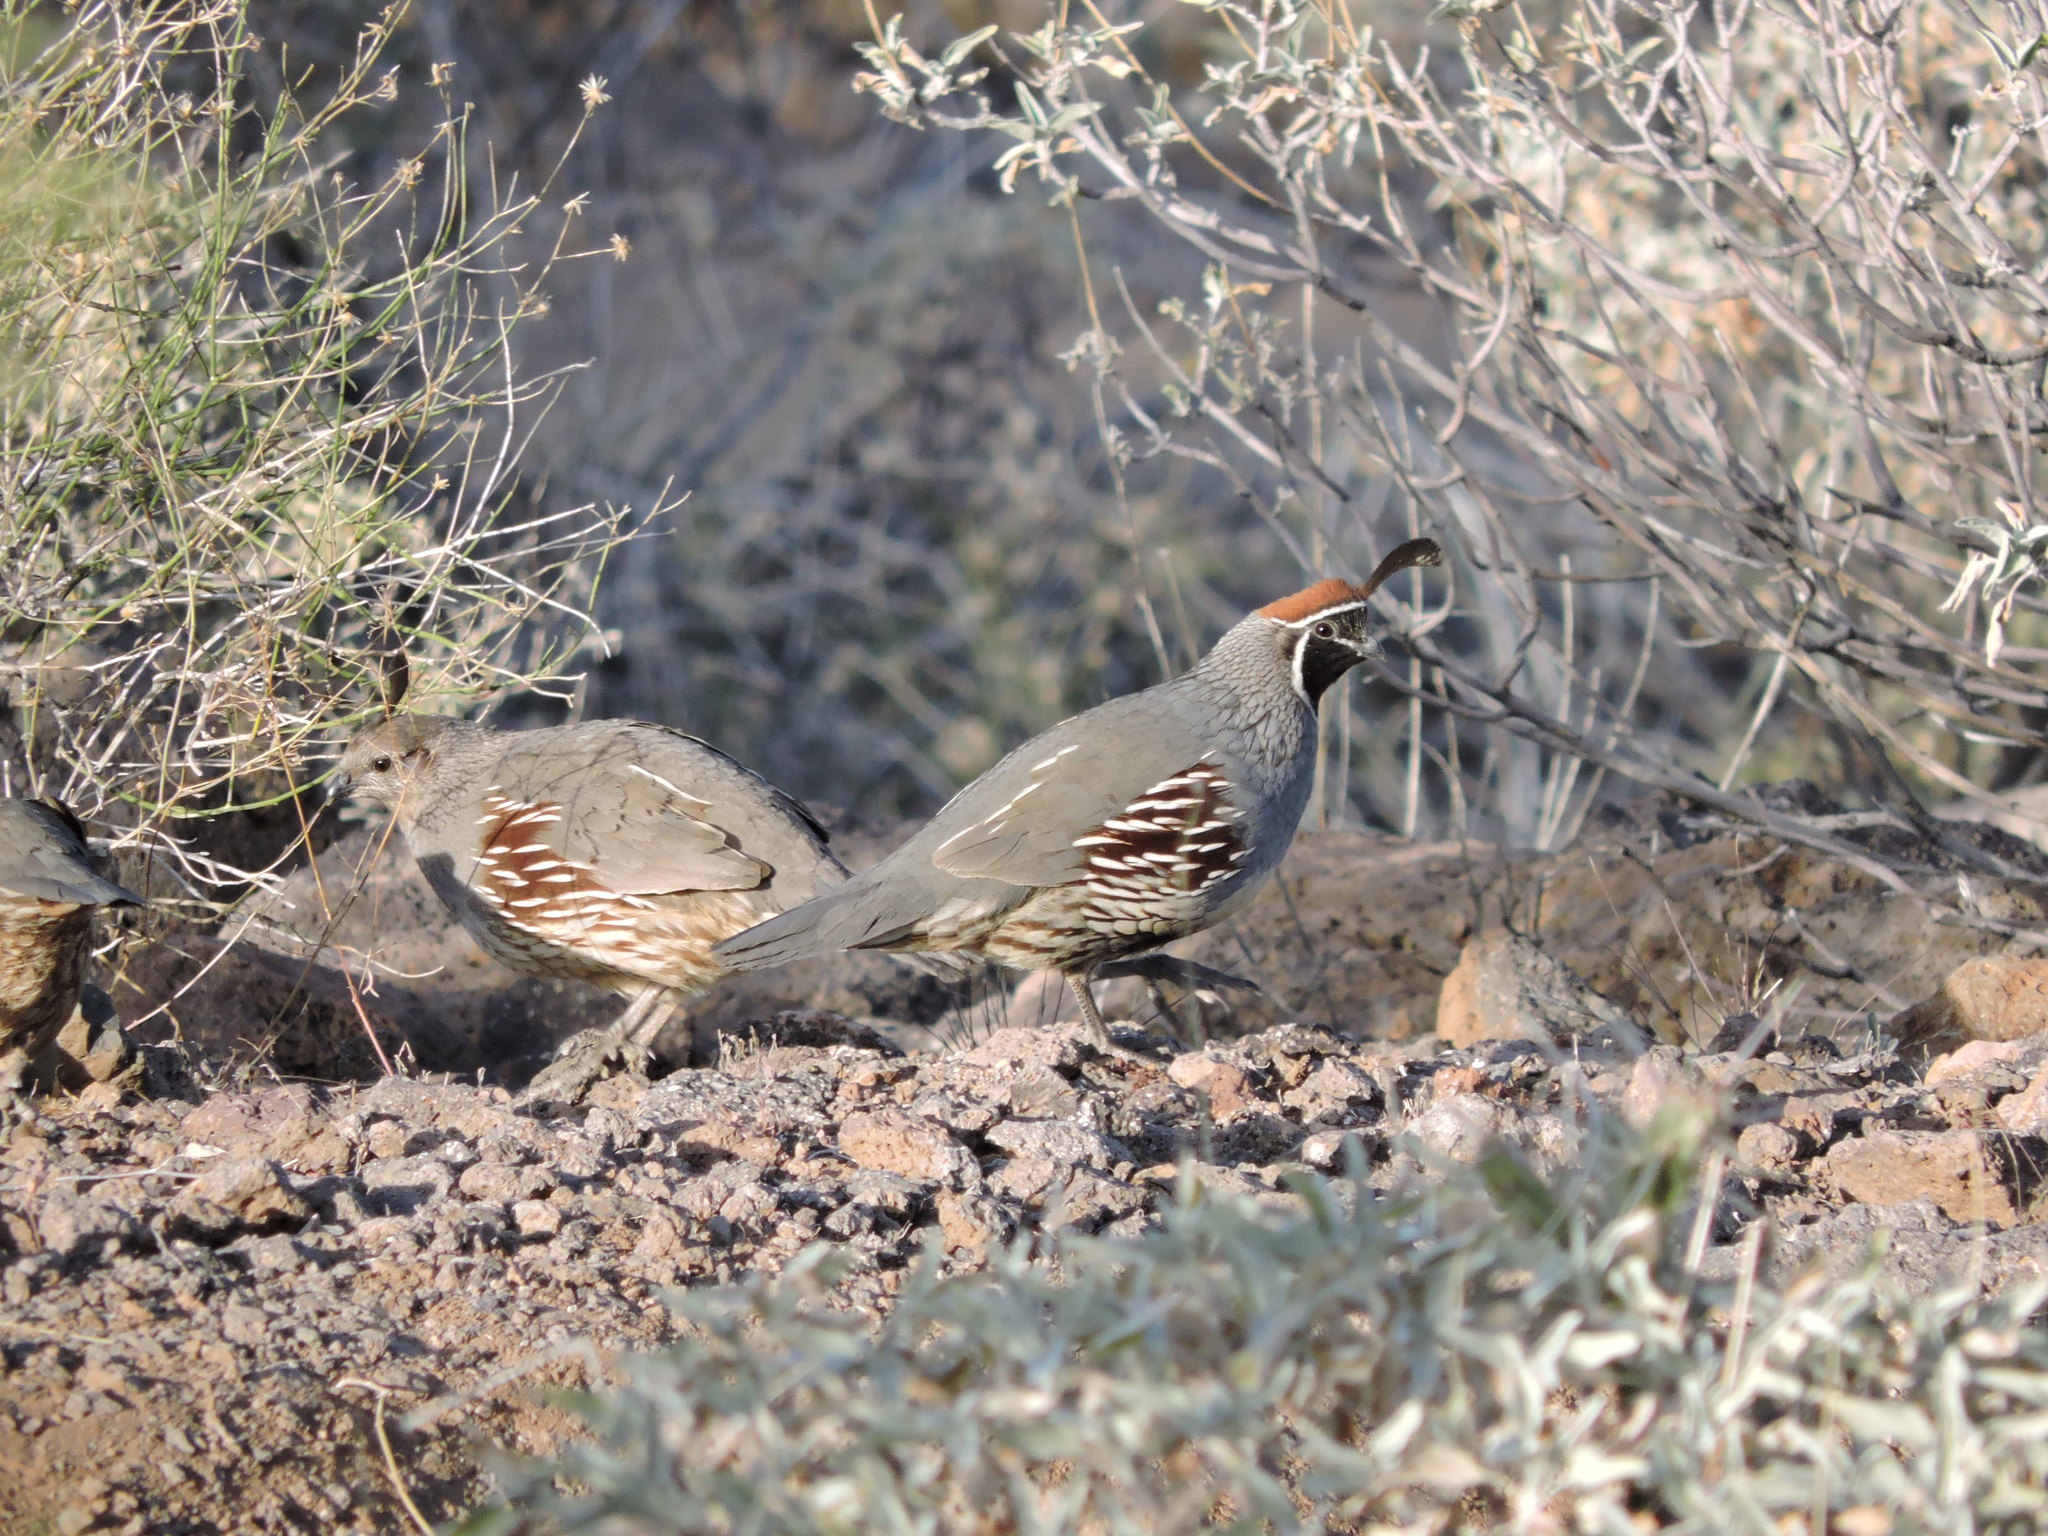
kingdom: Animalia
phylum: Chordata
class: Aves
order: Galliformes
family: Odontophoridae
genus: Callipepla
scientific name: Callipepla gambelii
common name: Gambel's quail
